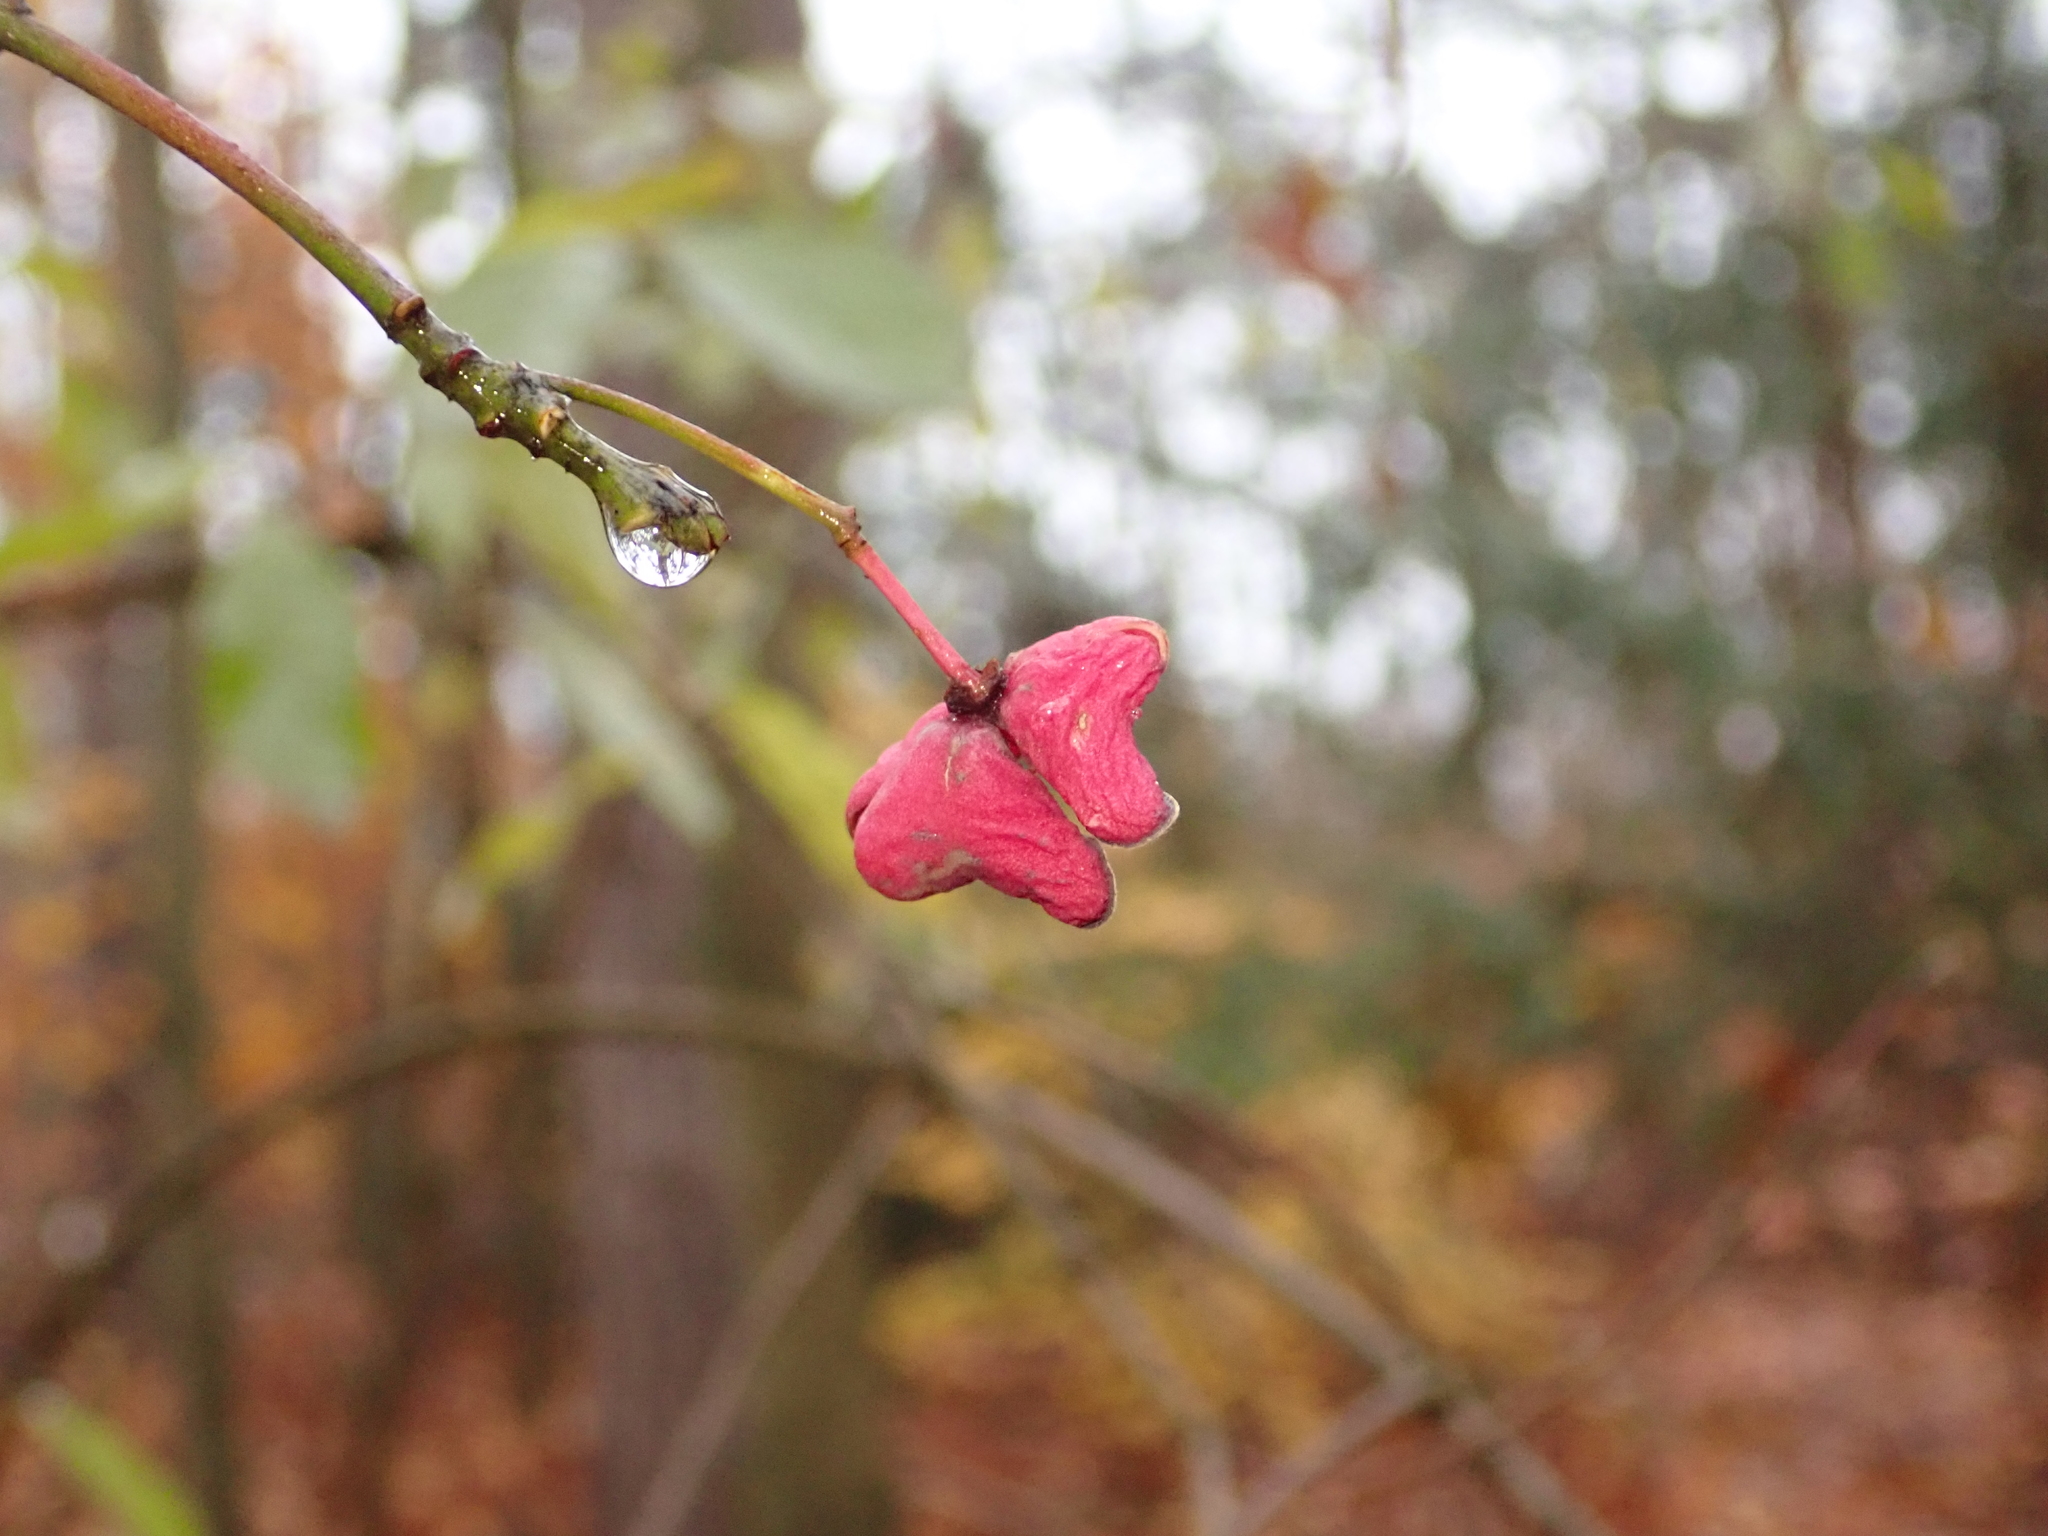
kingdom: Plantae
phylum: Tracheophyta
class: Magnoliopsida
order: Celastrales
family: Celastraceae
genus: Euonymus
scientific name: Euonymus europaeus
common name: Spindle
